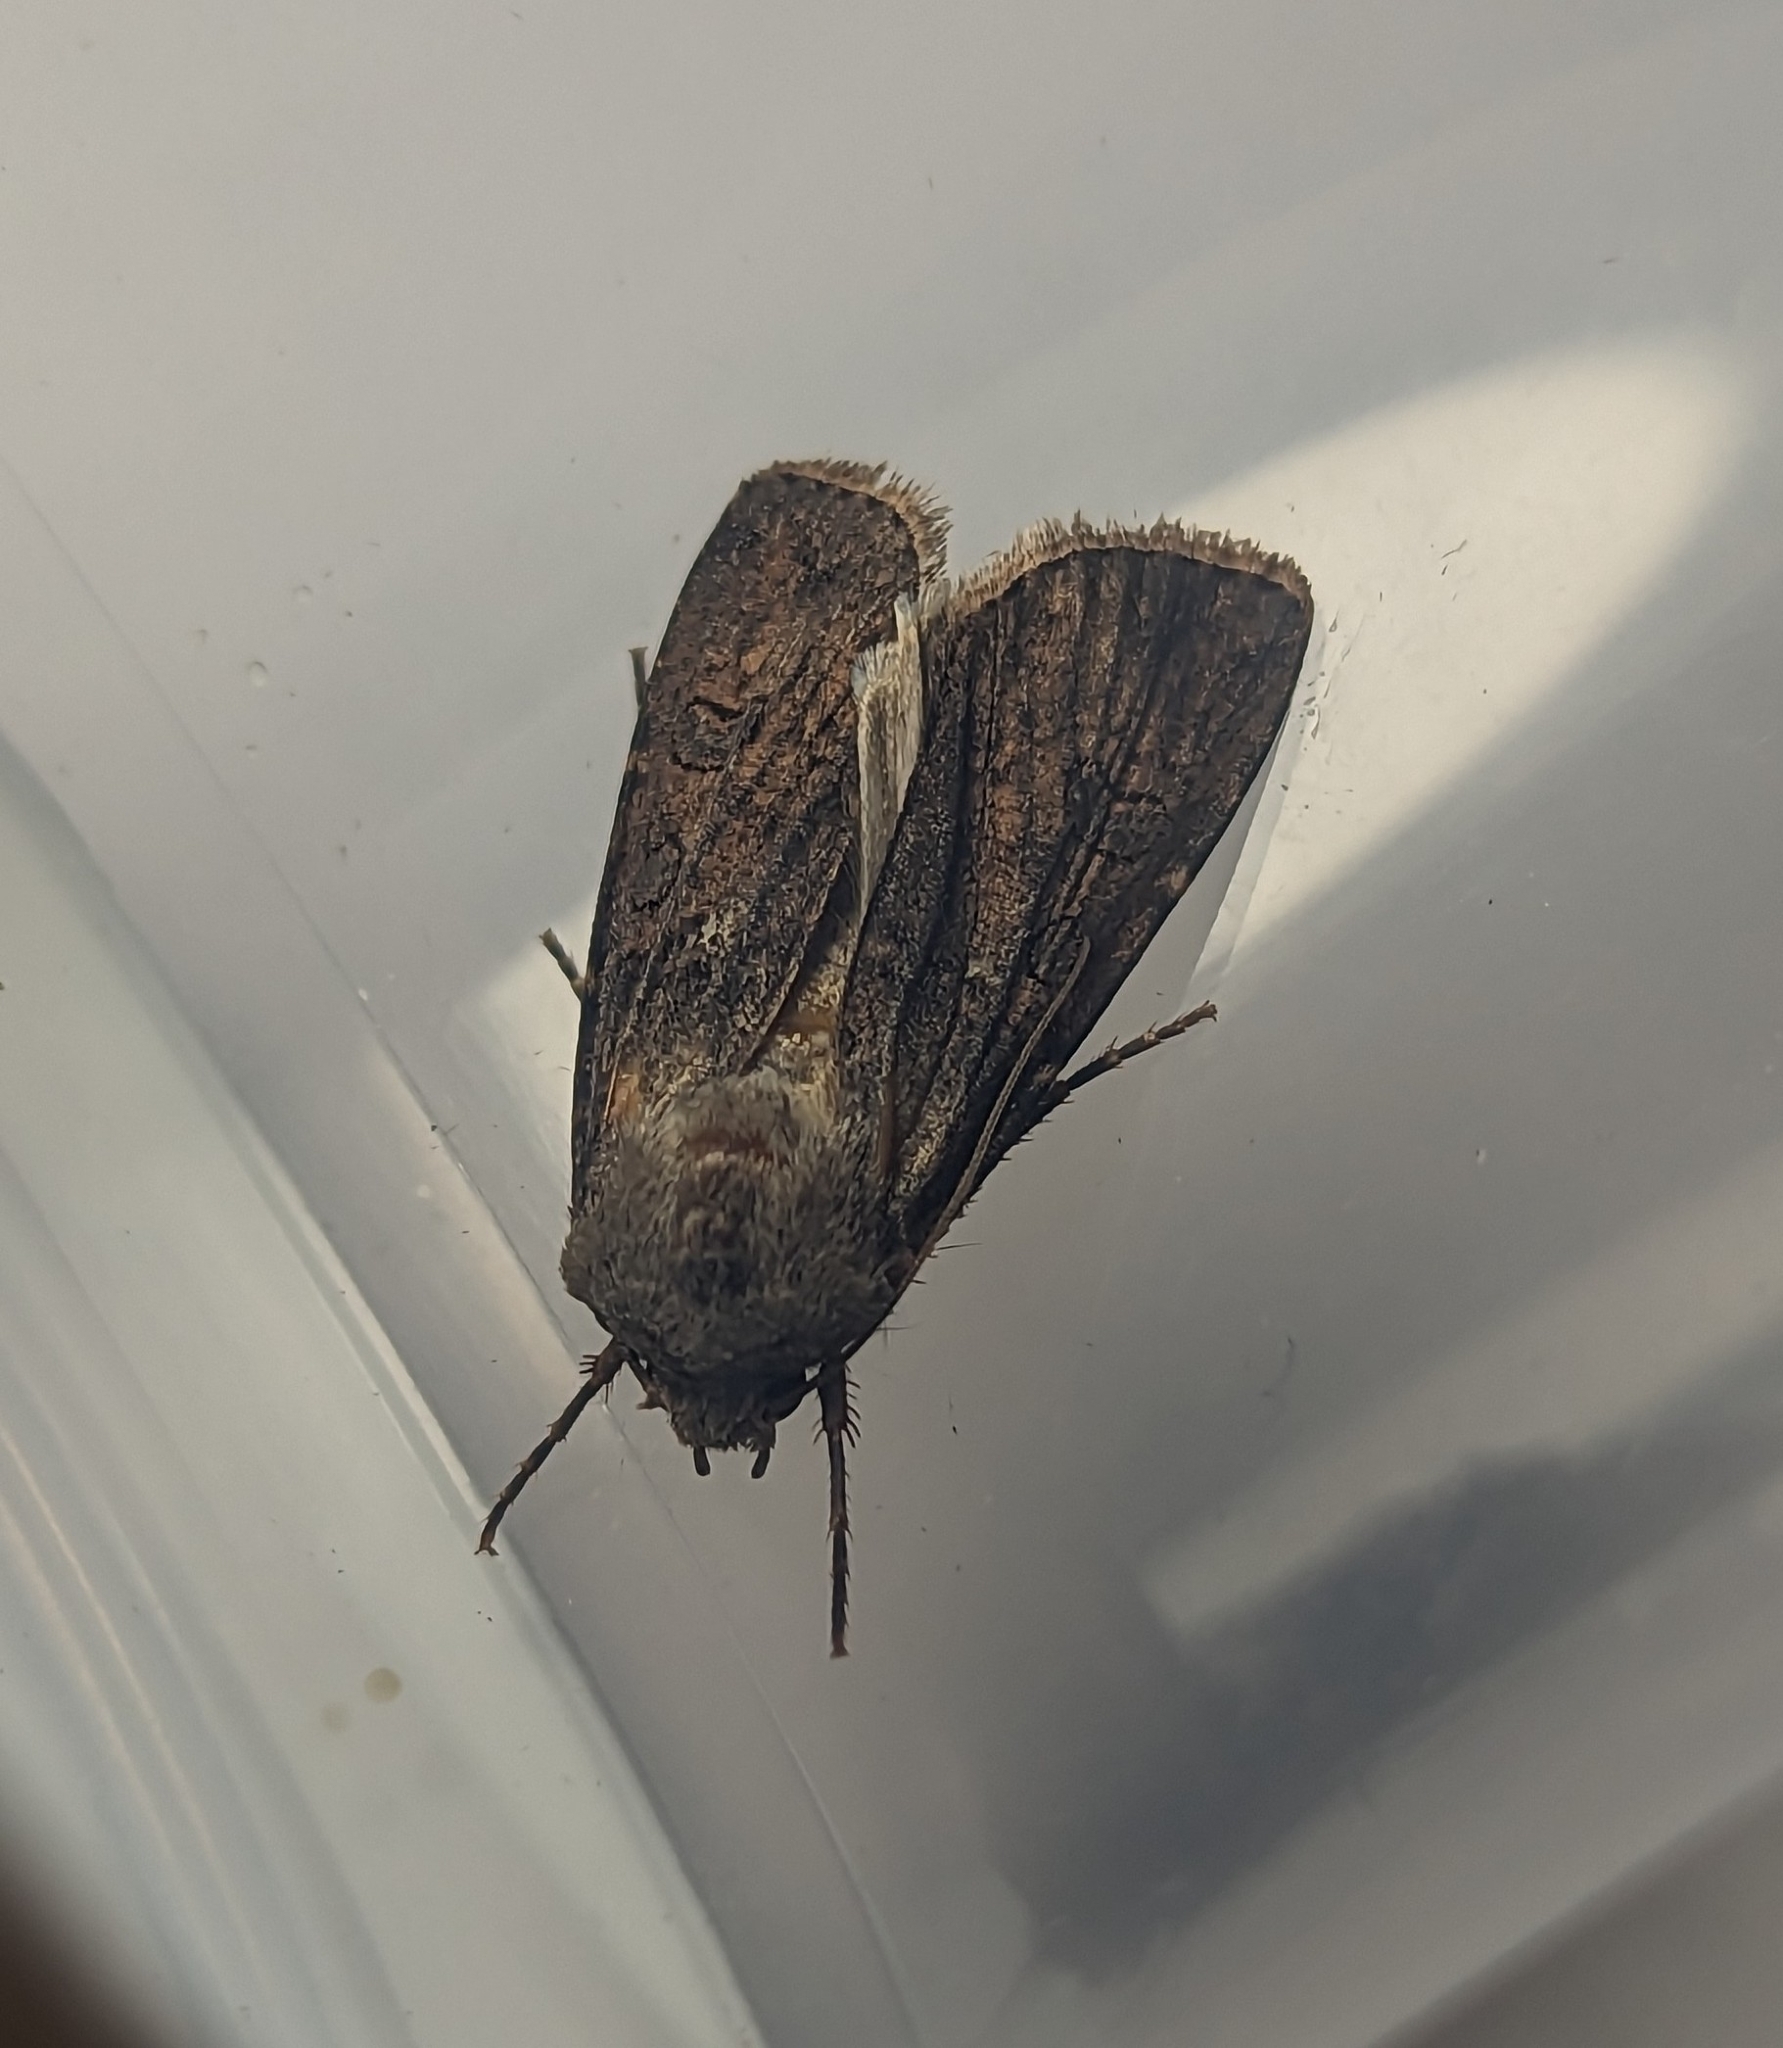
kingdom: Animalia
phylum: Arthropoda
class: Insecta
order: Lepidoptera
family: Noctuidae
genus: Agrotis
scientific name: Agrotis segetum
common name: Turnip moth
